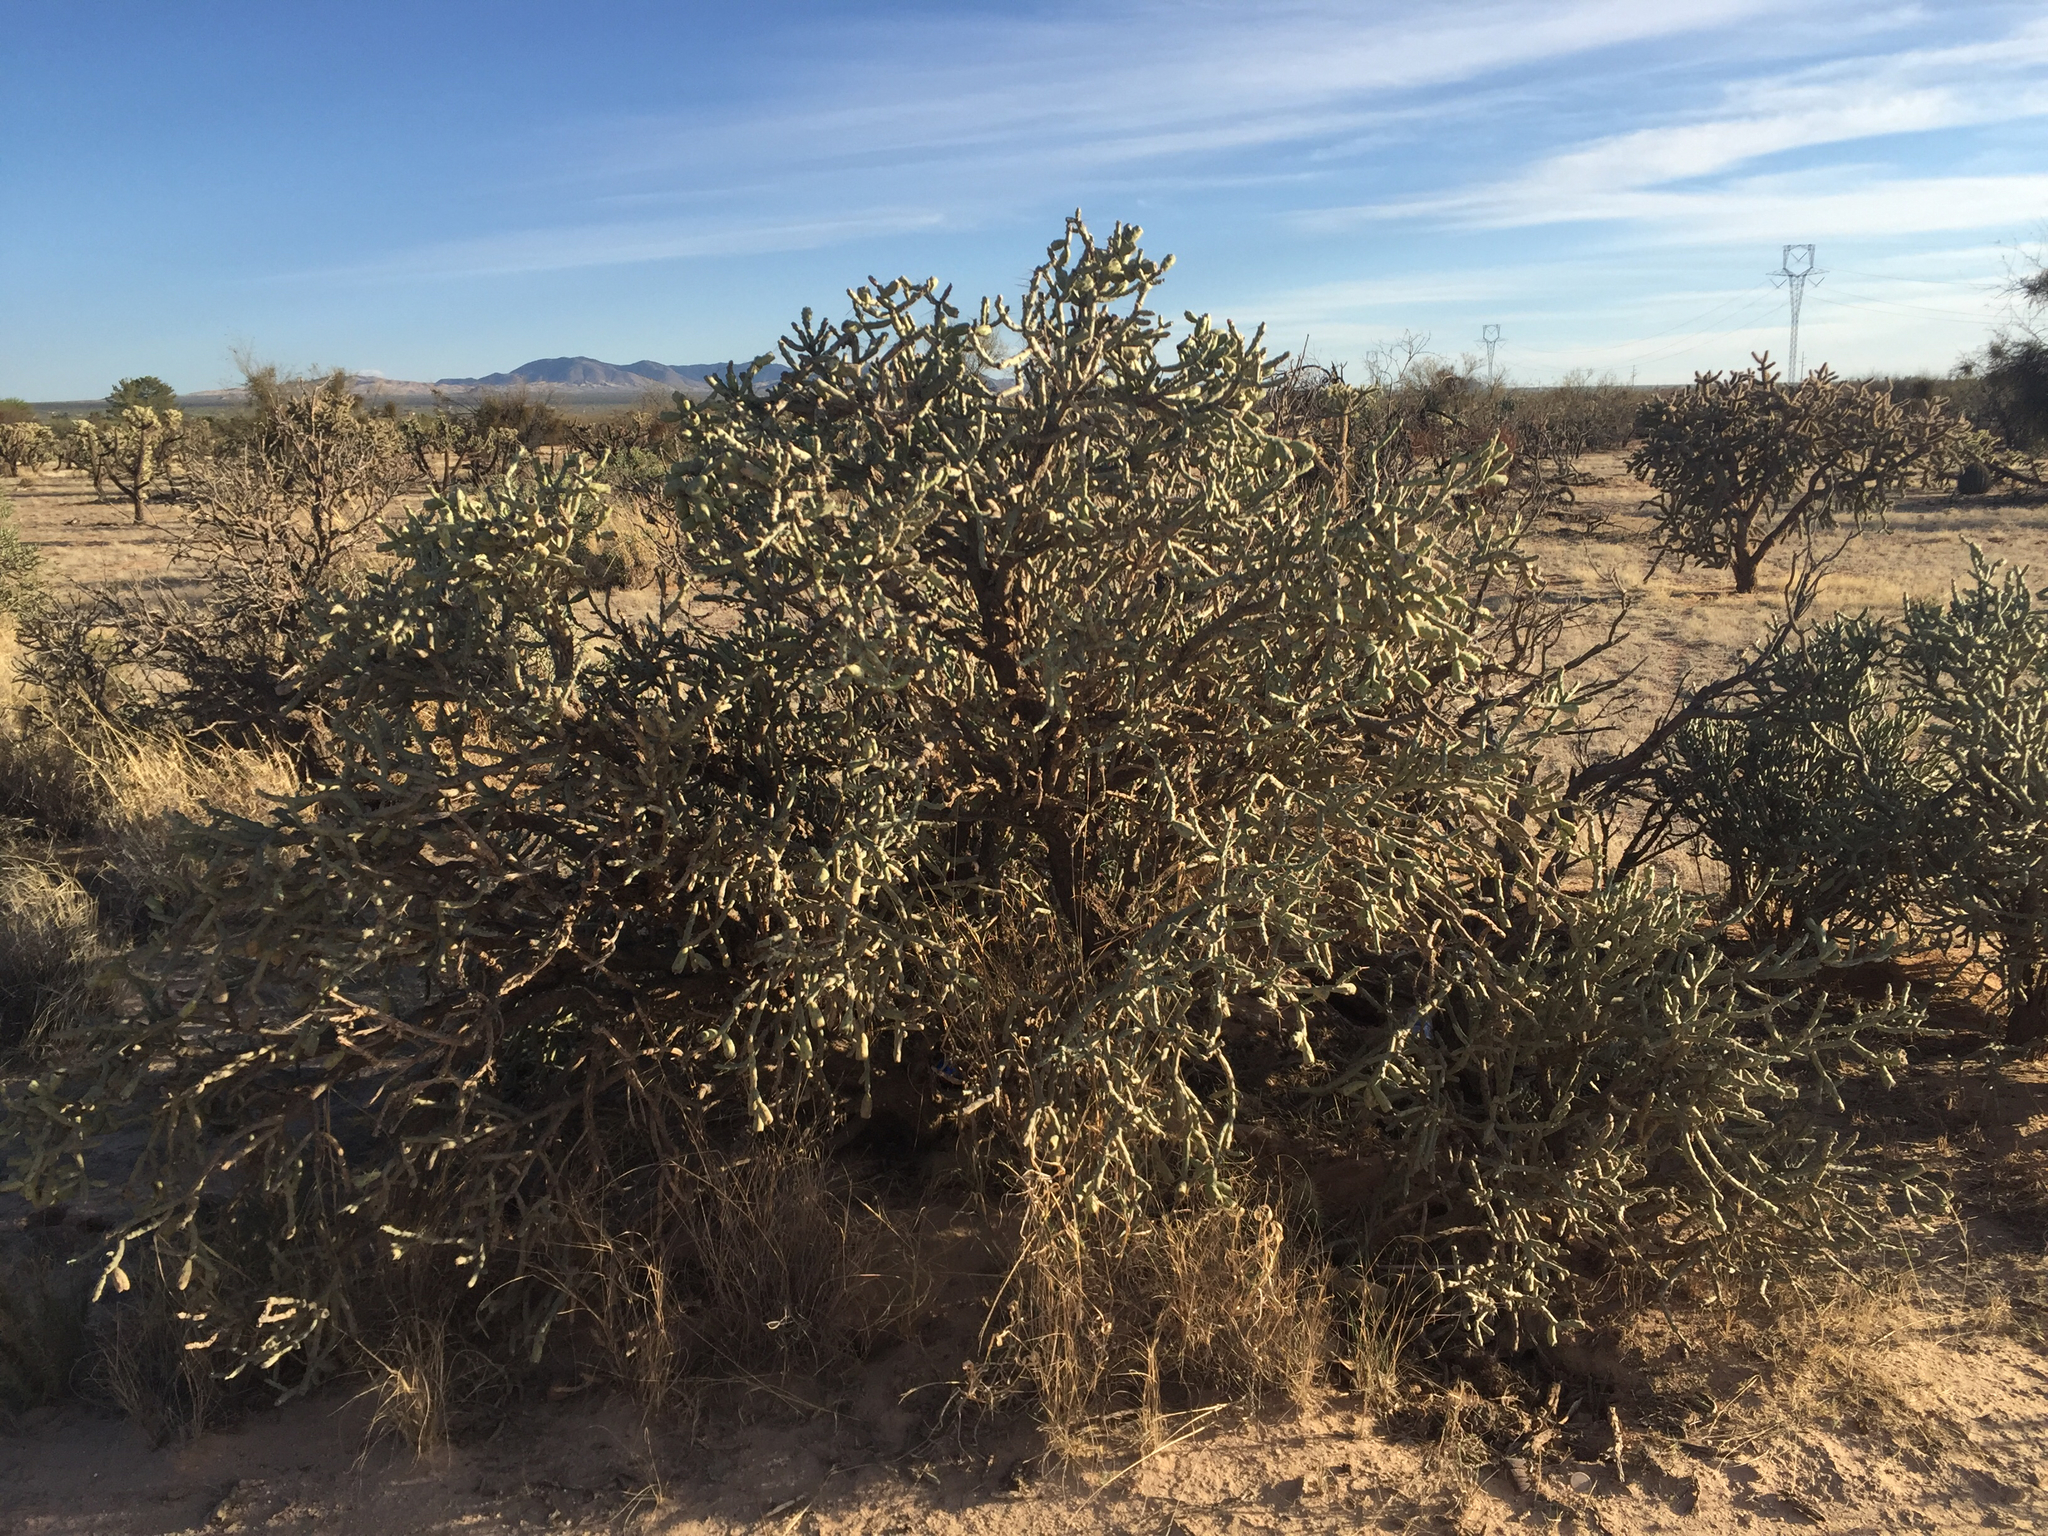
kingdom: Plantae
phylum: Tracheophyta
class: Magnoliopsida
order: Caryophyllales
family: Cactaceae
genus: Cylindropuntia
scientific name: Cylindropuntia arbuscula
